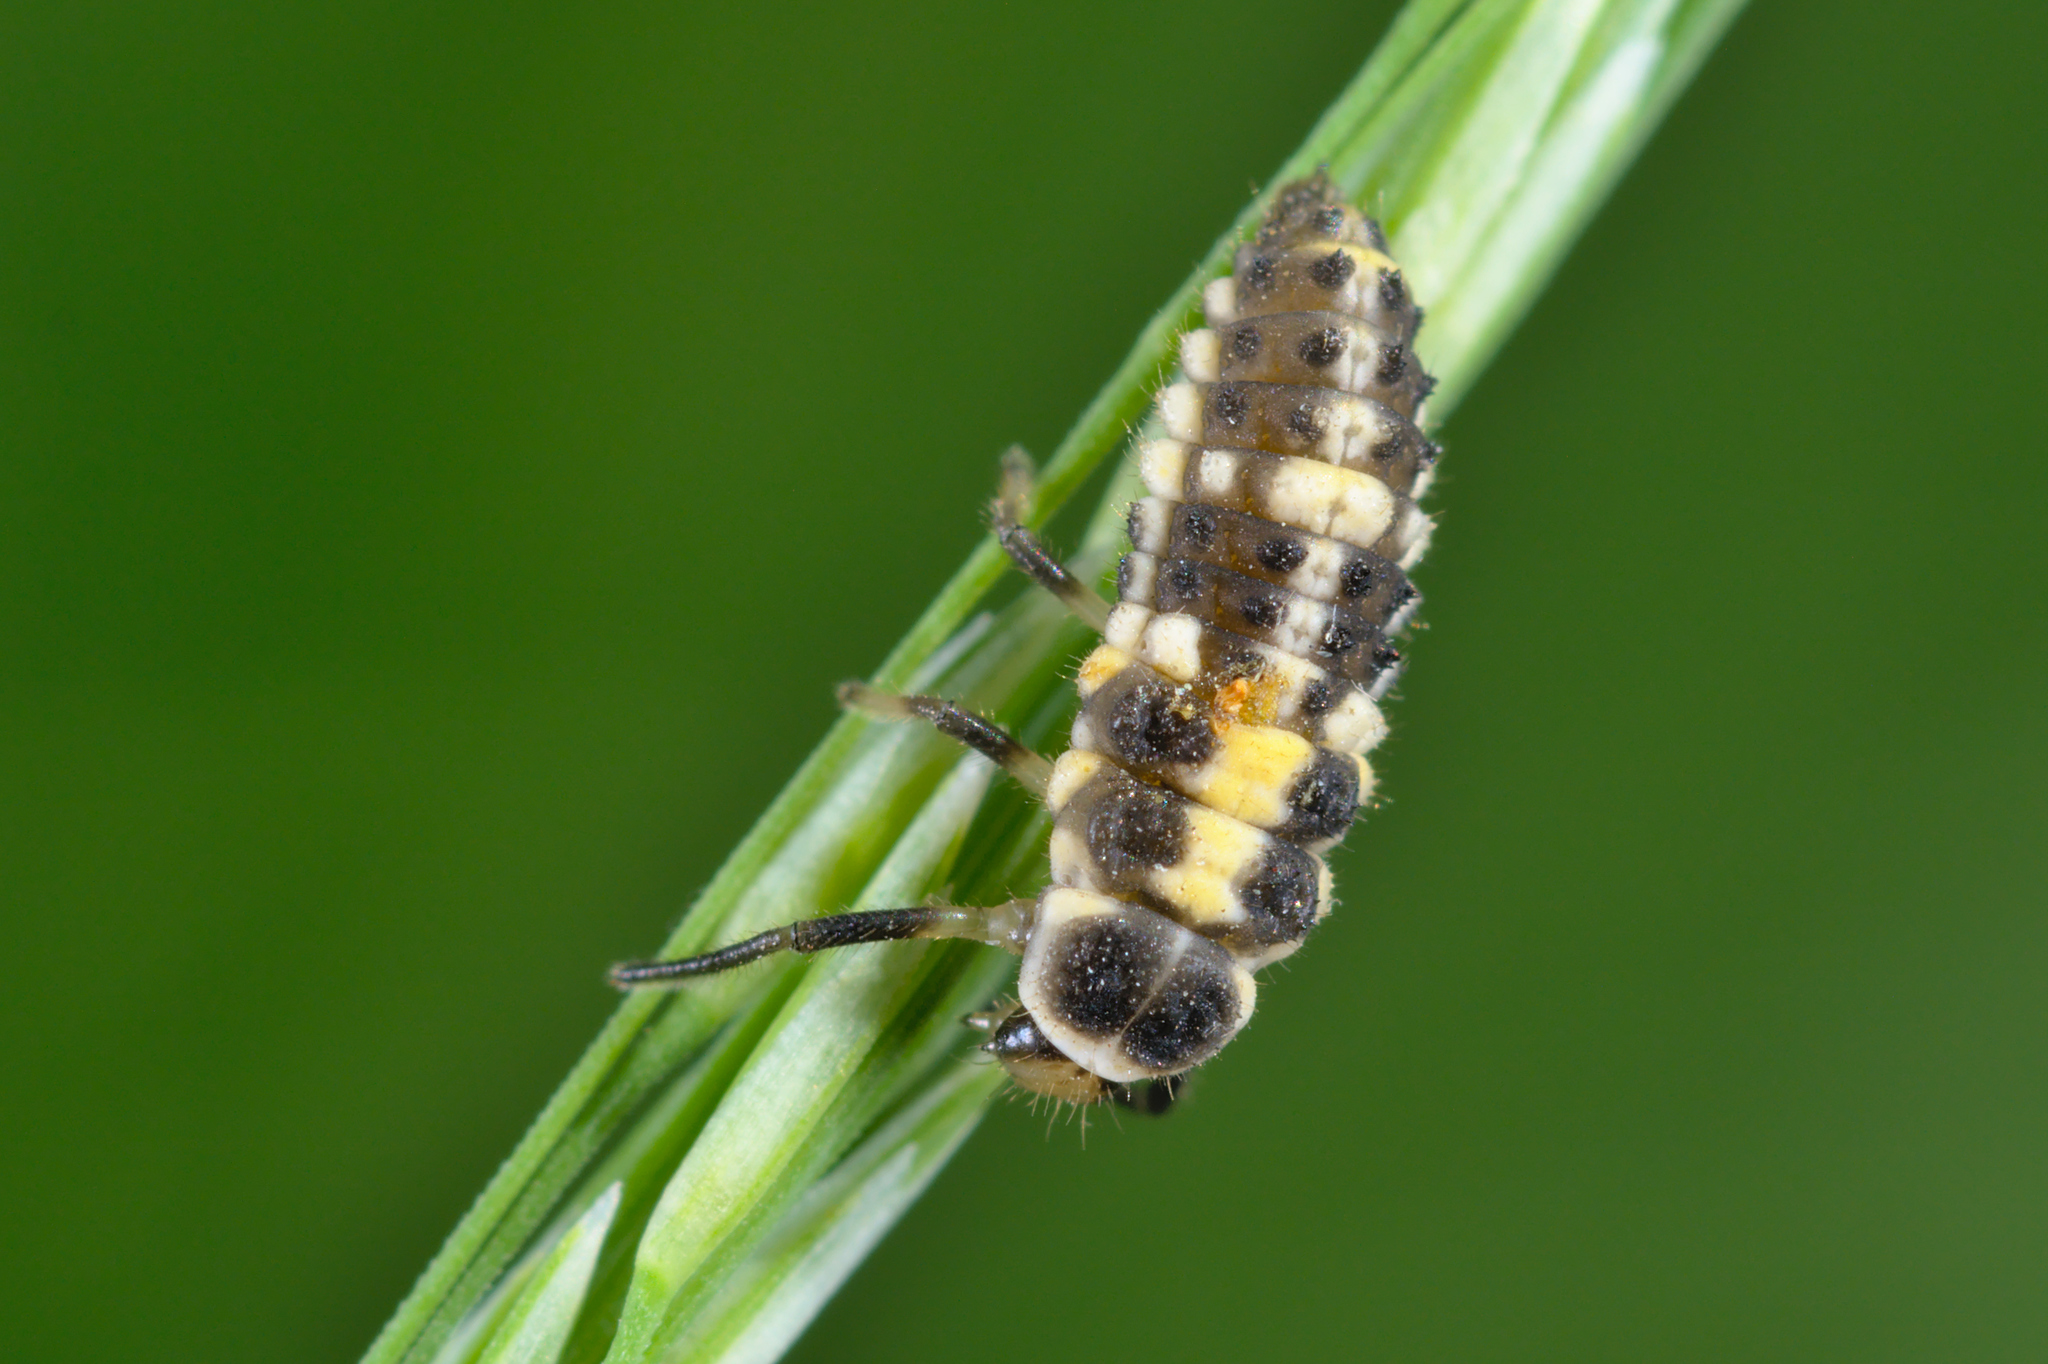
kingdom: Animalia
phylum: Arthropoda
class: Insecta
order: Coleoptera
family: Coccinellidae
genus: Propylaea
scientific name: Propylaea quatuordecimpunctata
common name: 14-spotted ladybird beetle
